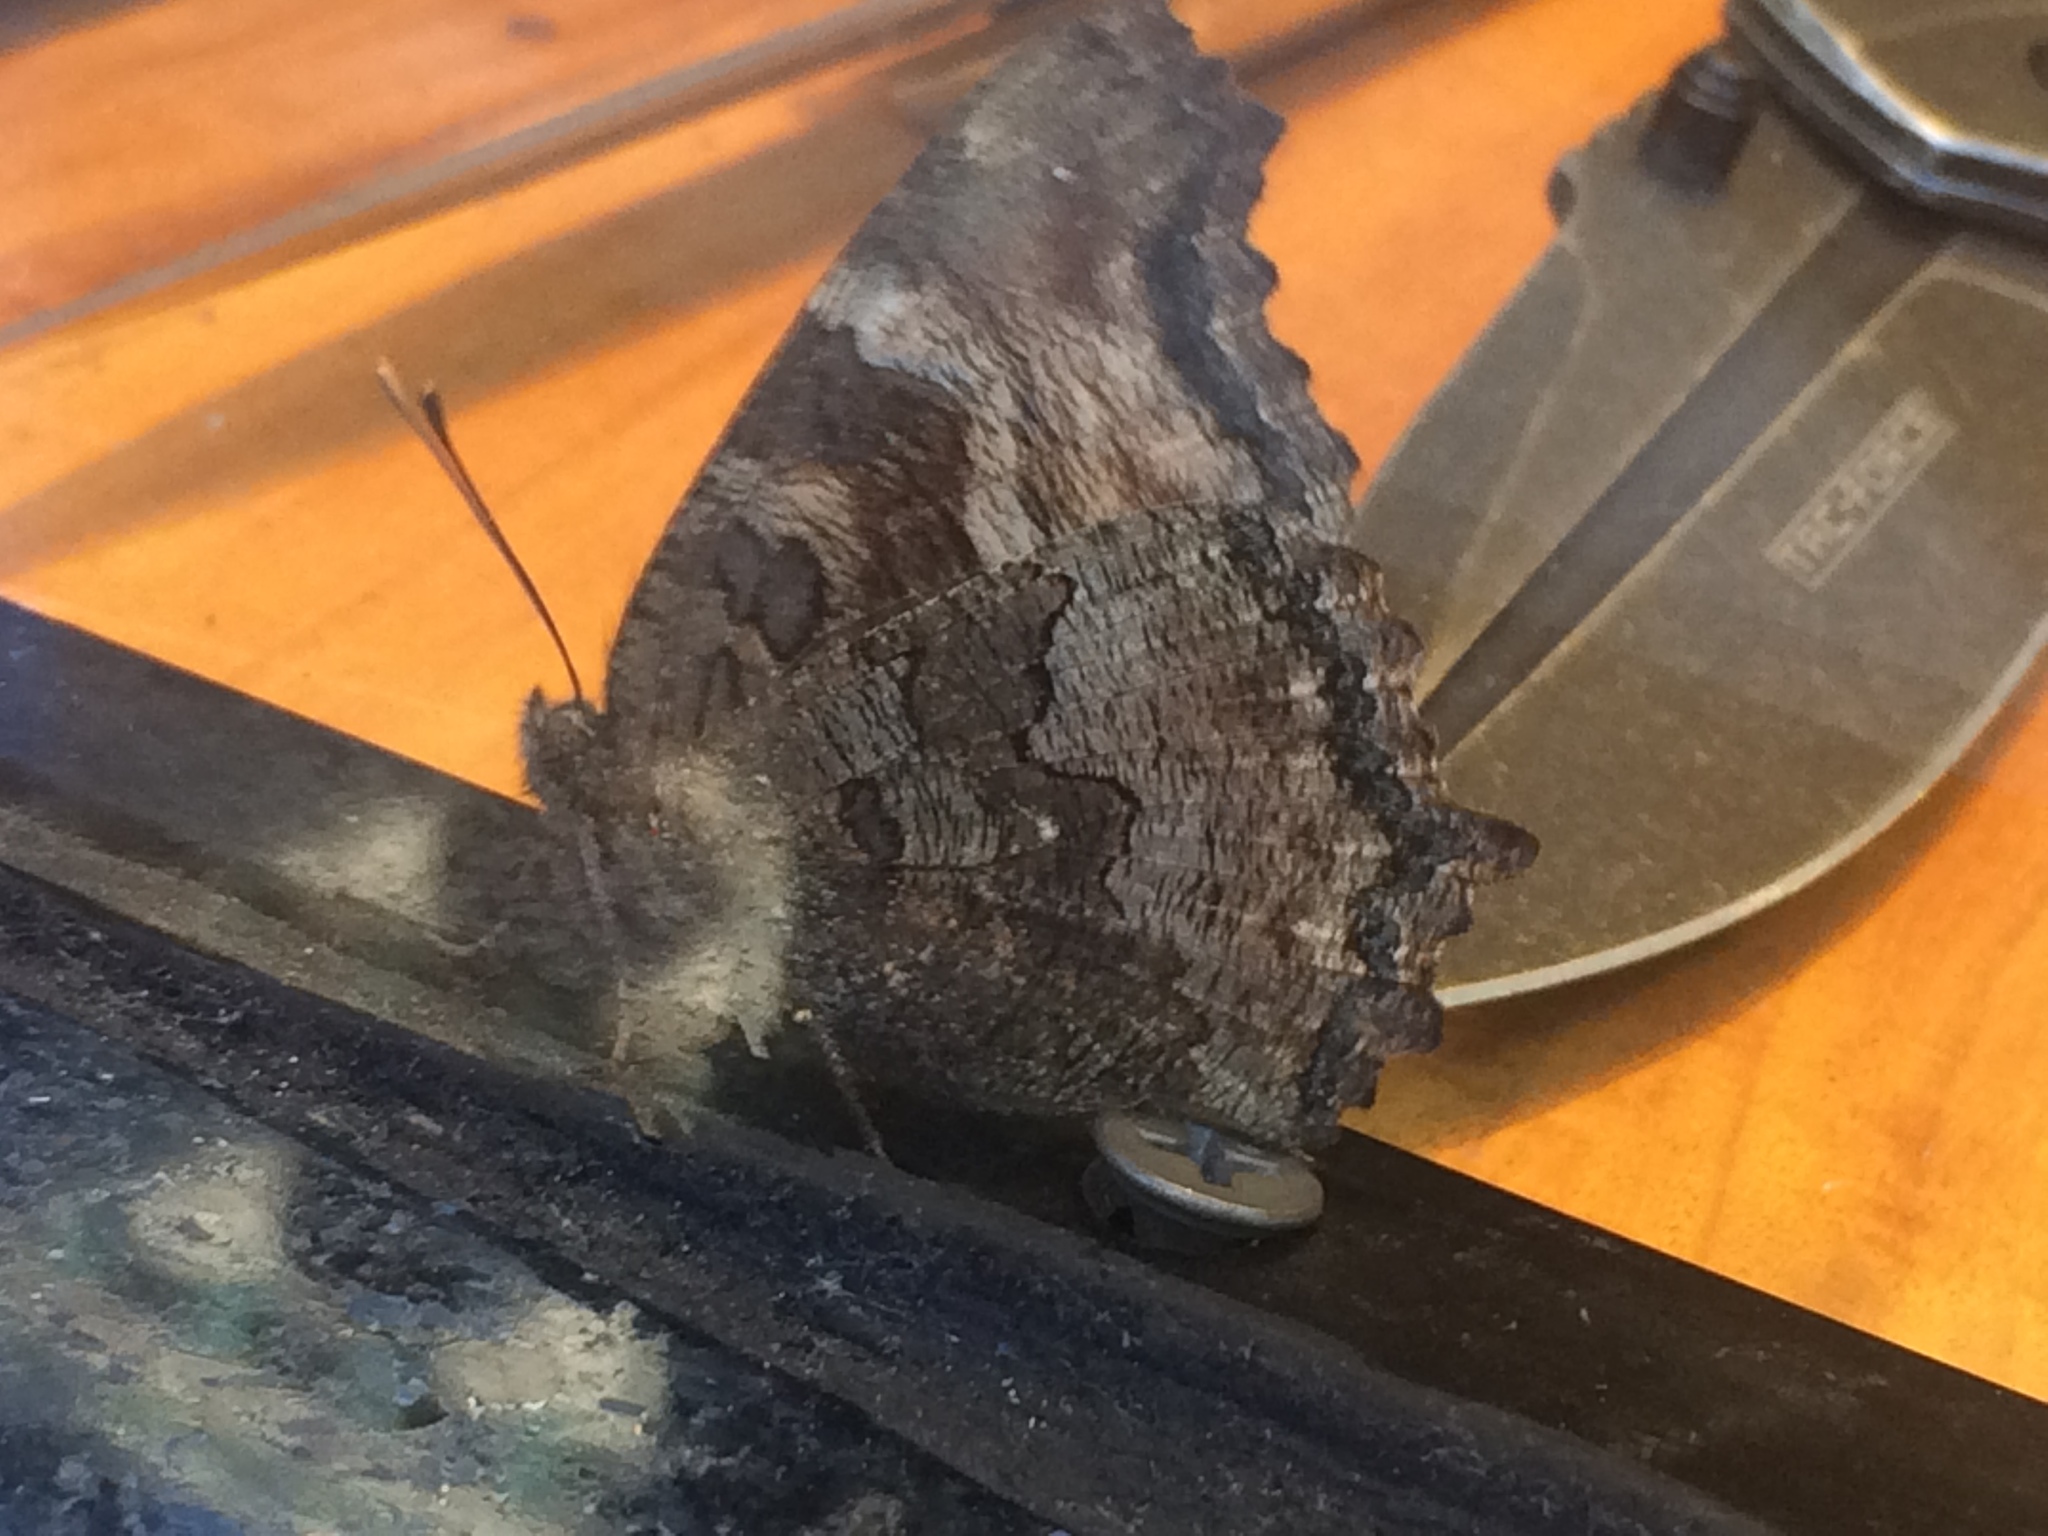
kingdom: Animalia
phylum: Arthropoda
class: Insecta
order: Lepidoptera
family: Nymphalidae
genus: Nymphalis
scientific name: Nymphalis californica
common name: California tortoiseshell
